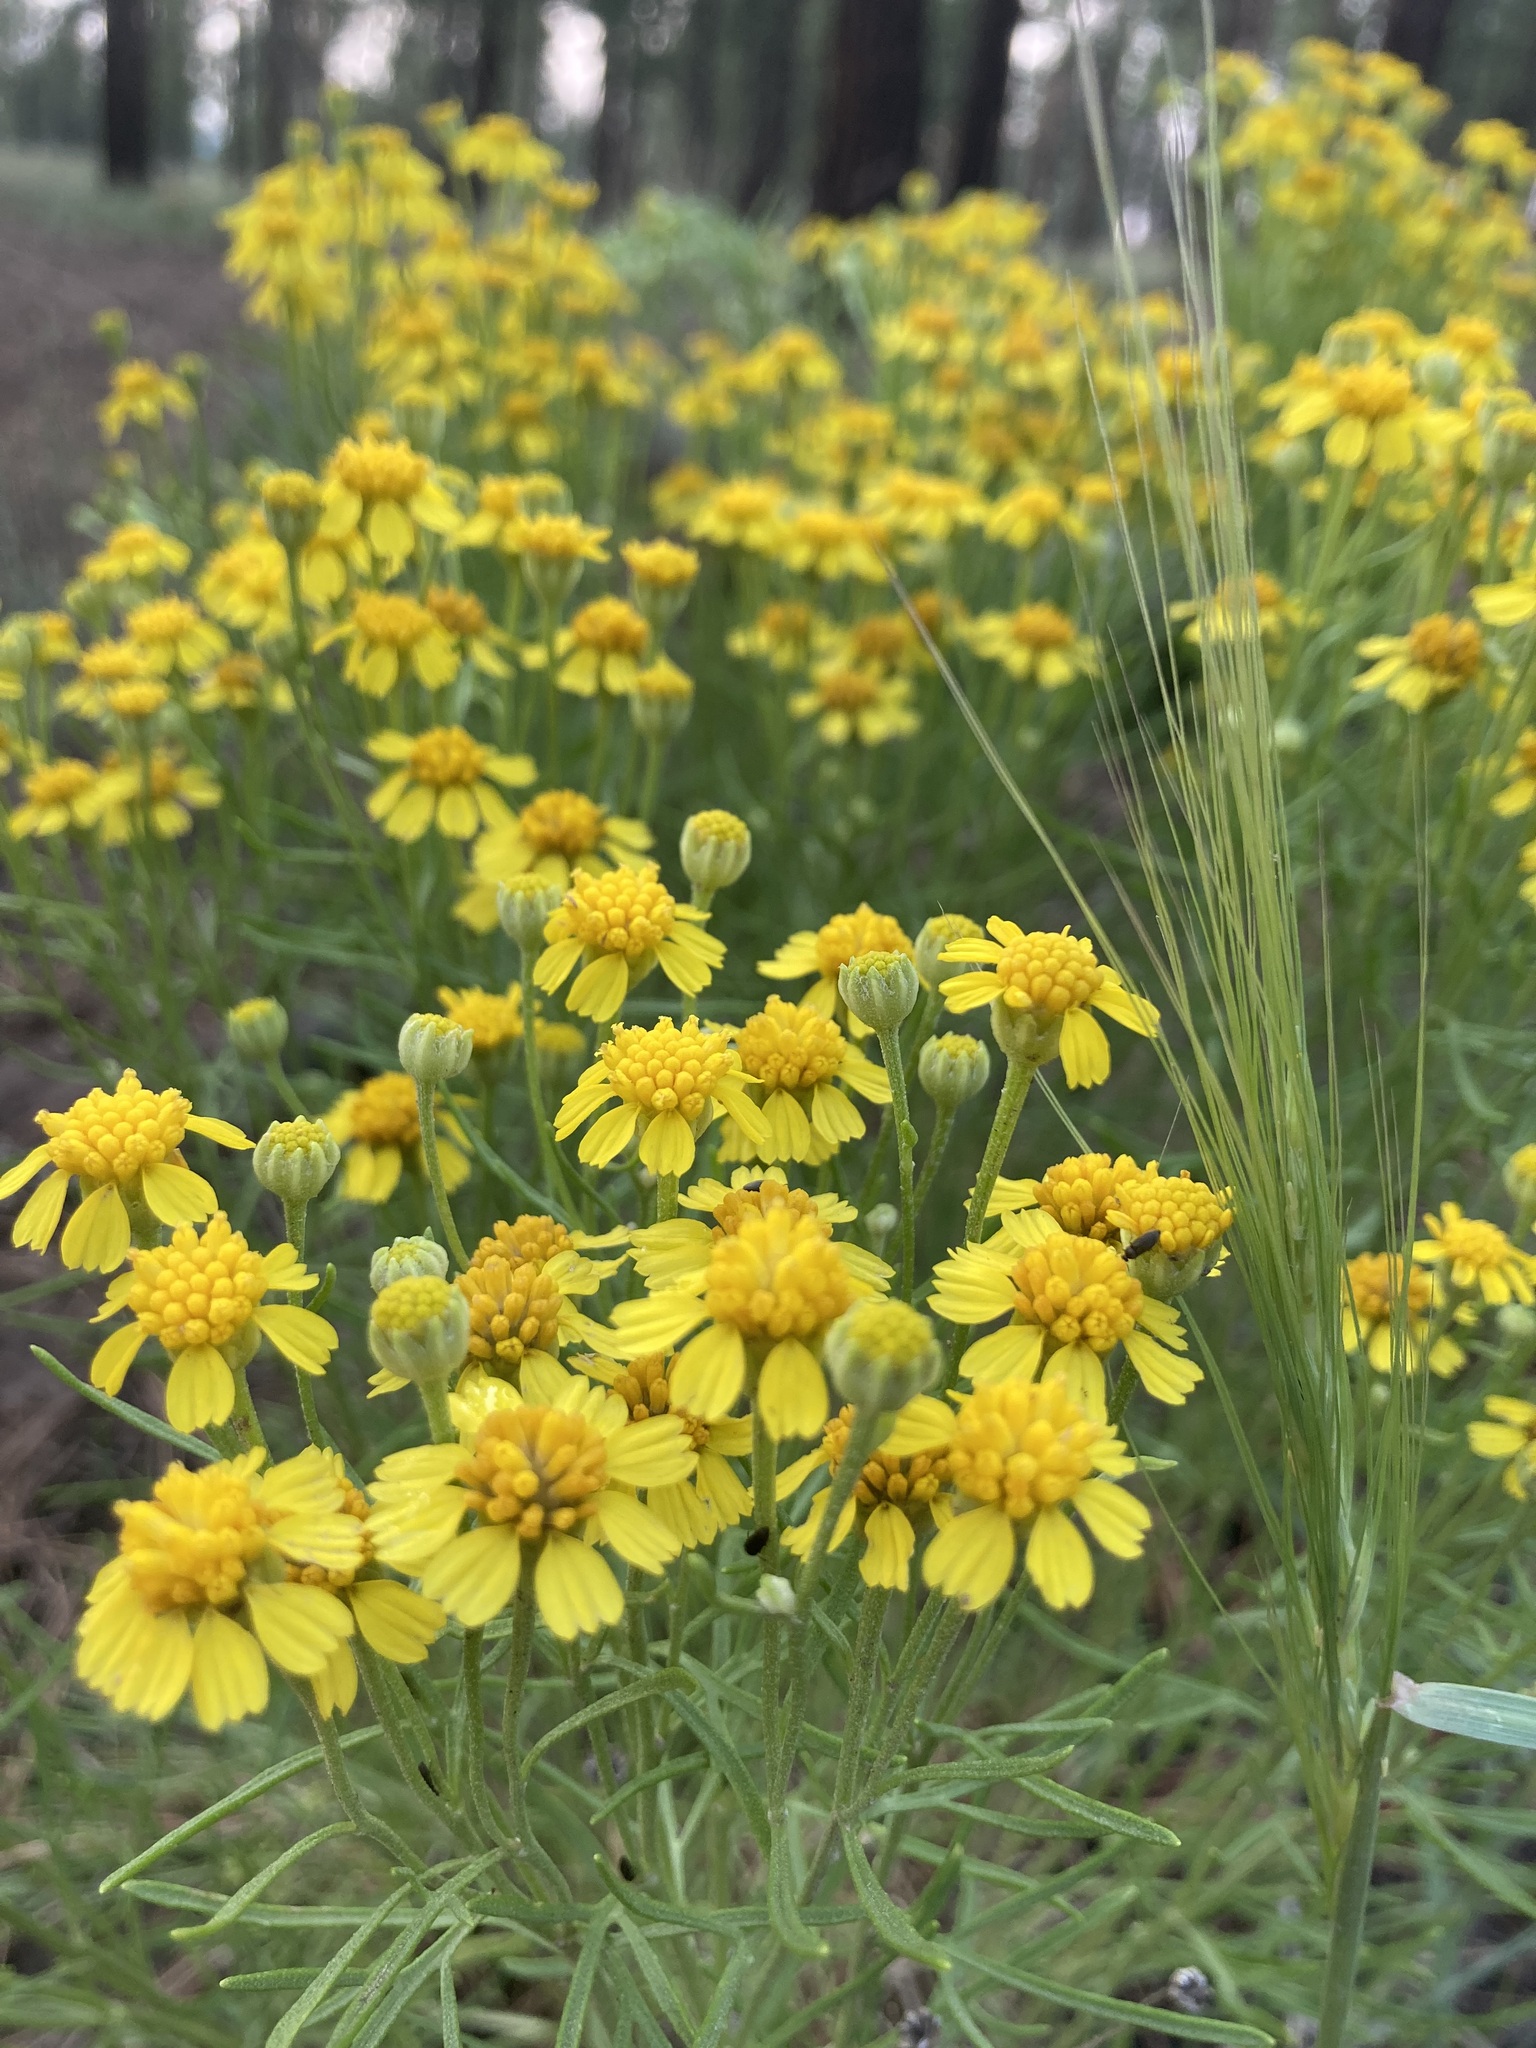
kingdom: Plantae
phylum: Tracheophyta
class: Magnoliopsida
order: Asterales
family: Asteraceae
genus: Hymenoxys
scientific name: Hymenoxys richardsonii
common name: Pingue rubberweed
